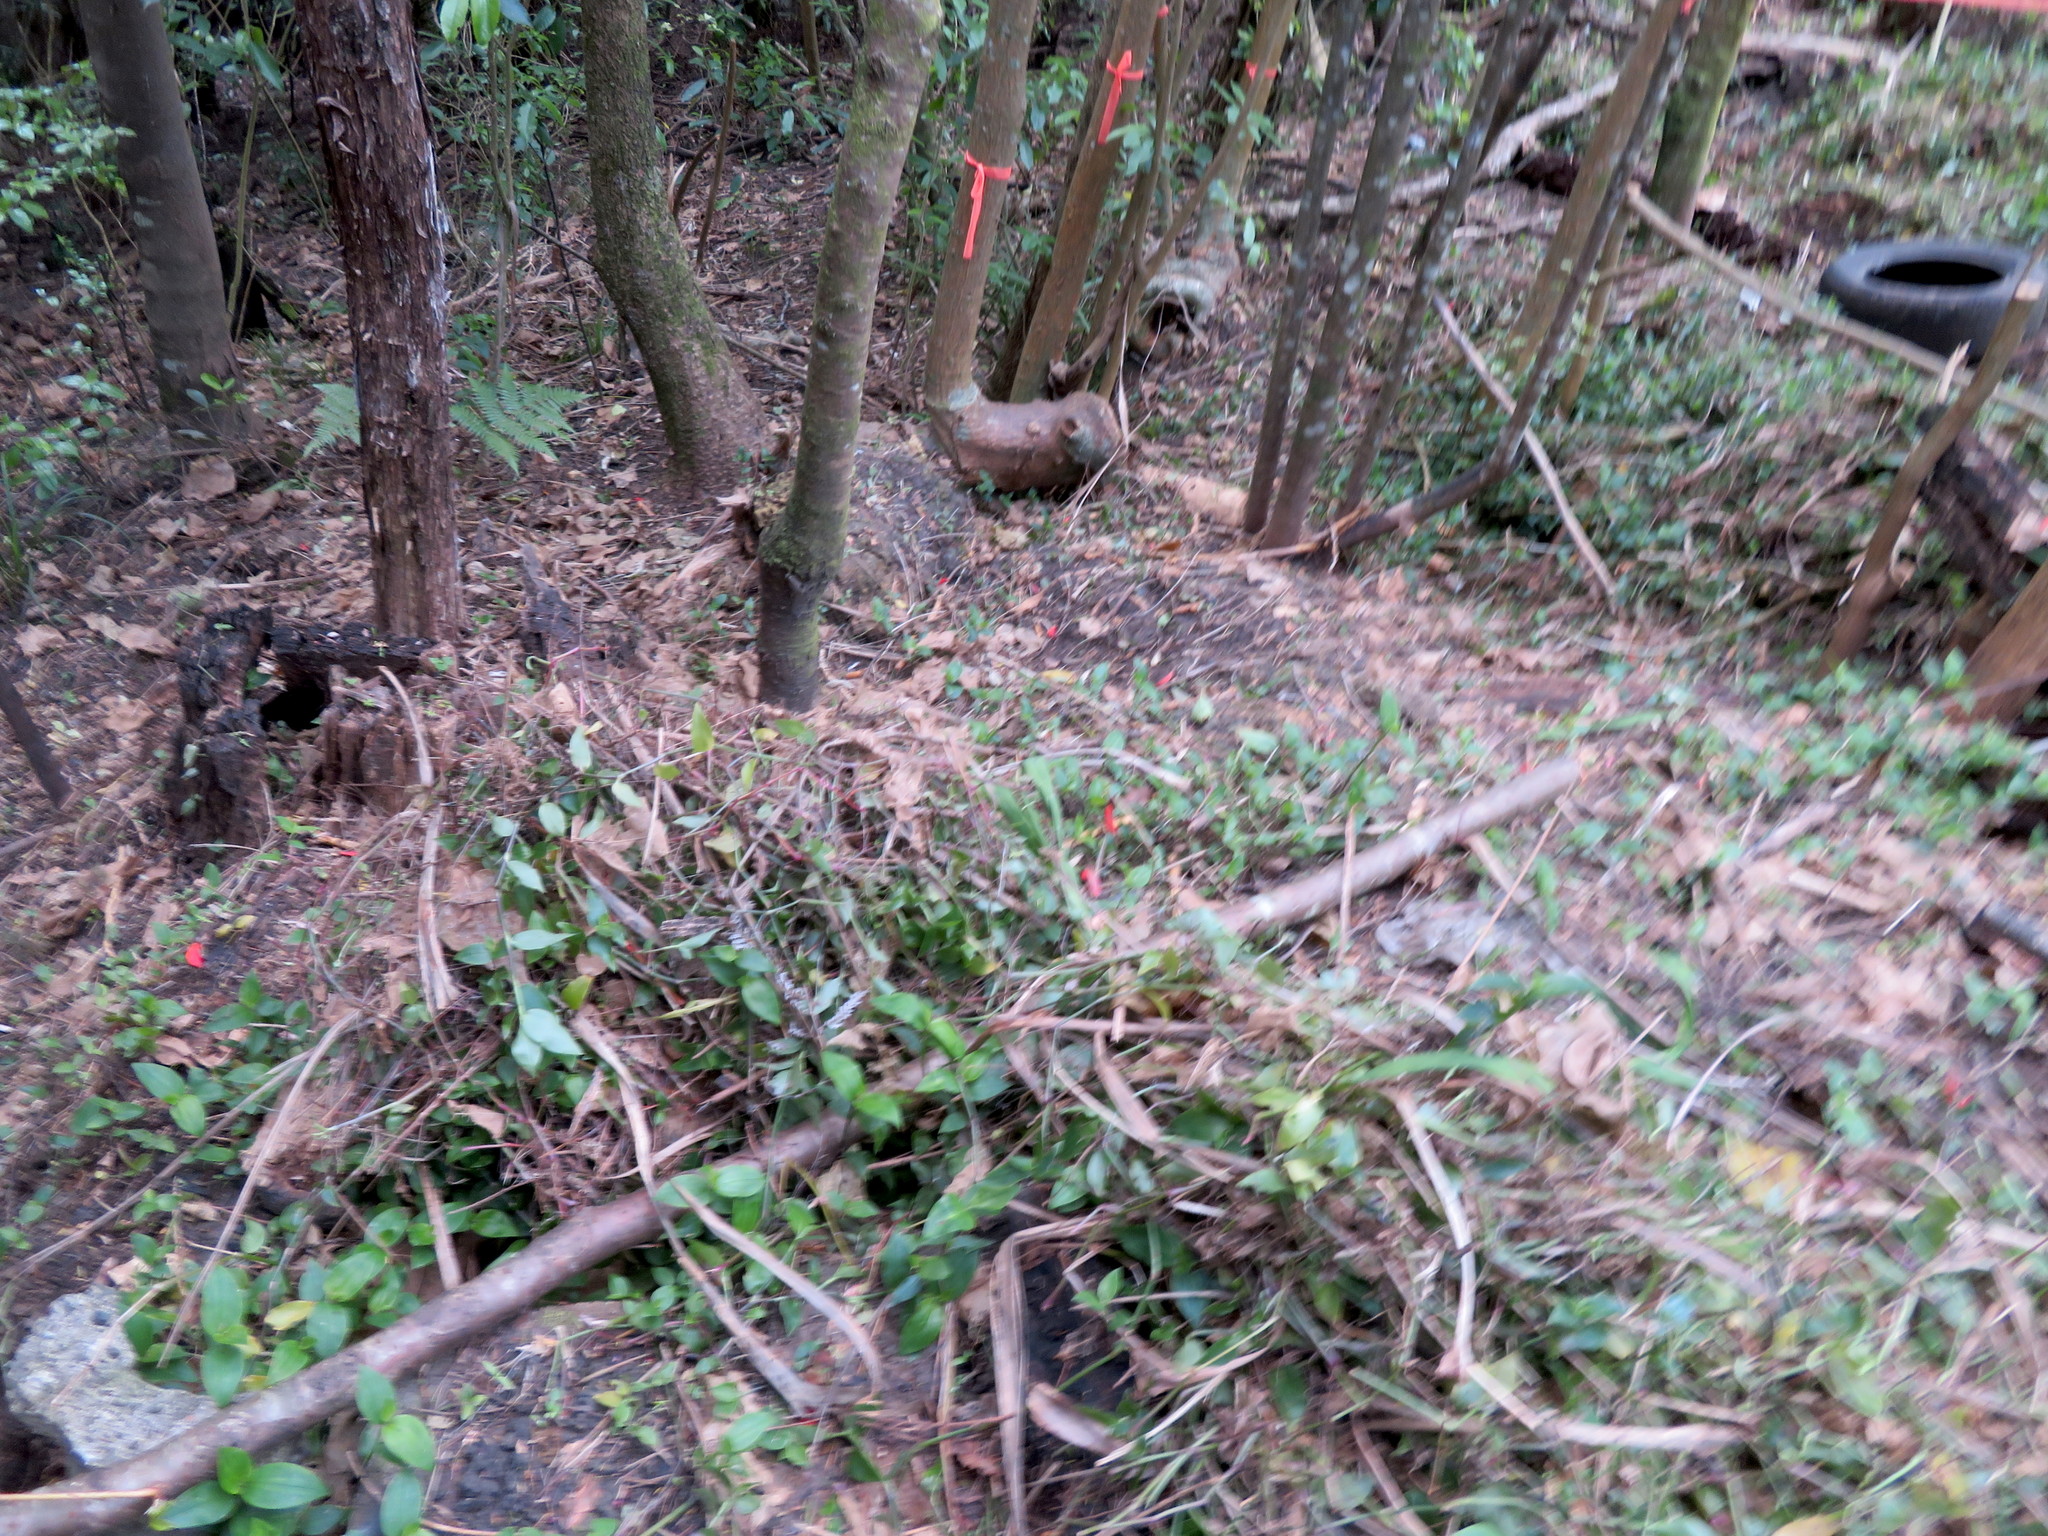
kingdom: Plantae
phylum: Tracheophyta
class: Liliopsida
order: Commelinales
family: Commelinaceae
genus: Tradescantia
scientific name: Tradescantia fluminensis
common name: Wandering-jew
